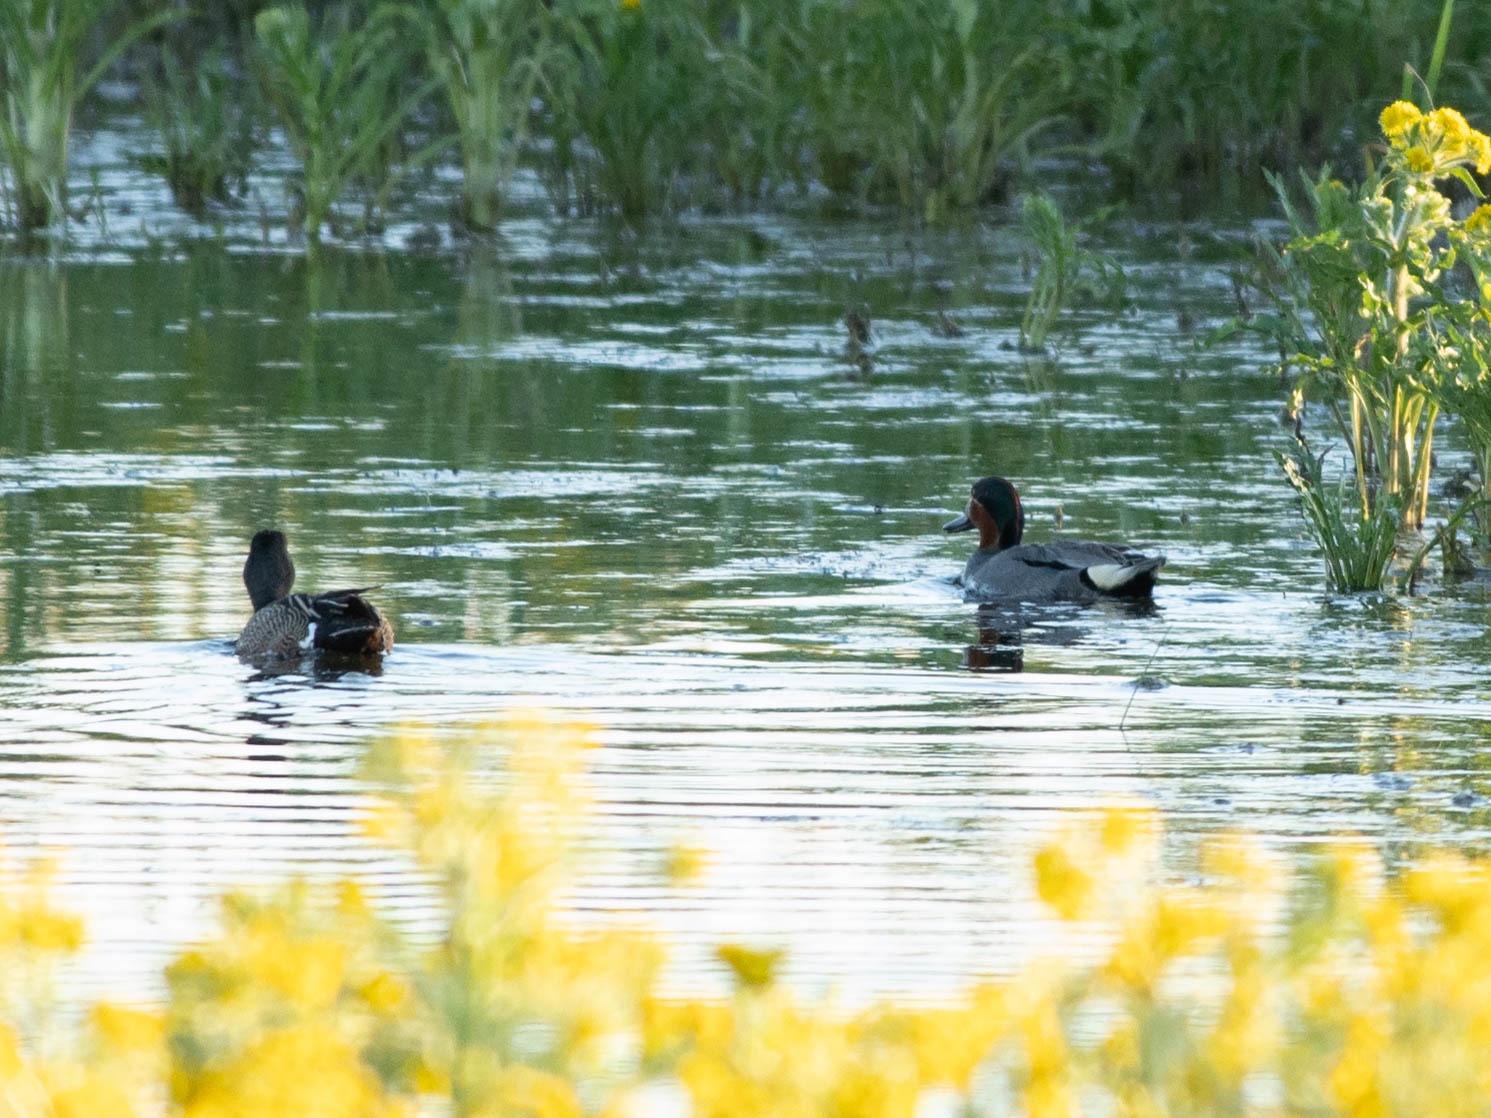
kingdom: Animalia
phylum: Chordata
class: Aves
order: Anseriformes
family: Anatidae
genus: Anas
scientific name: Anas crecca
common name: Eurasian teal
